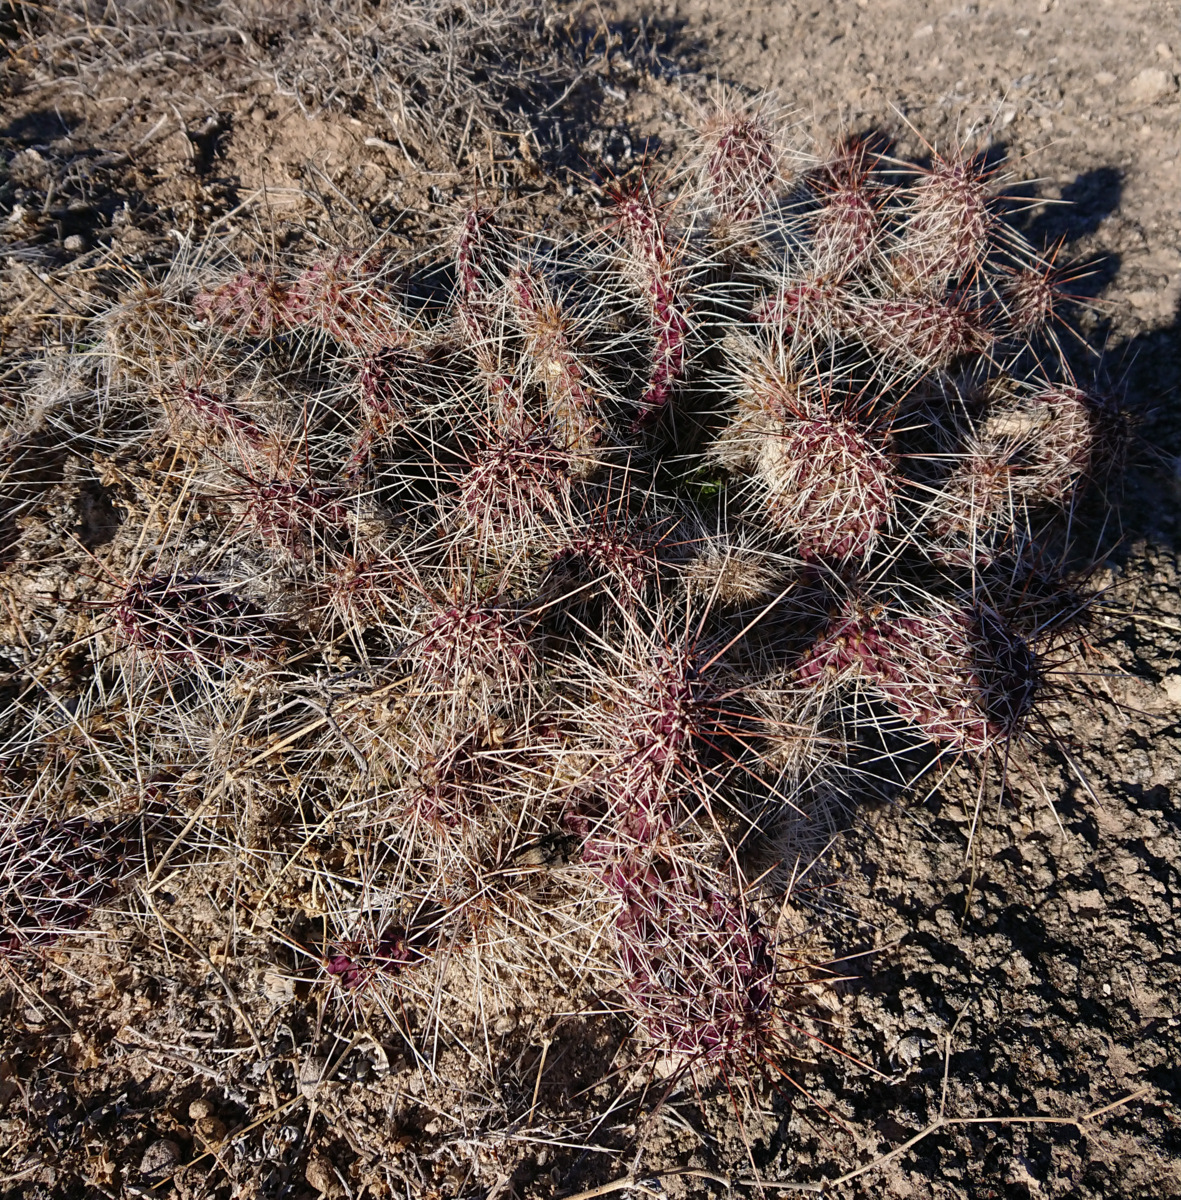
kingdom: Plantae
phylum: Tracheophyta
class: Magnoliopsida
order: Caryophyllales
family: Cactaceae
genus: Opuntia
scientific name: Opuntia polyacantha
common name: Plains prickly-pear
